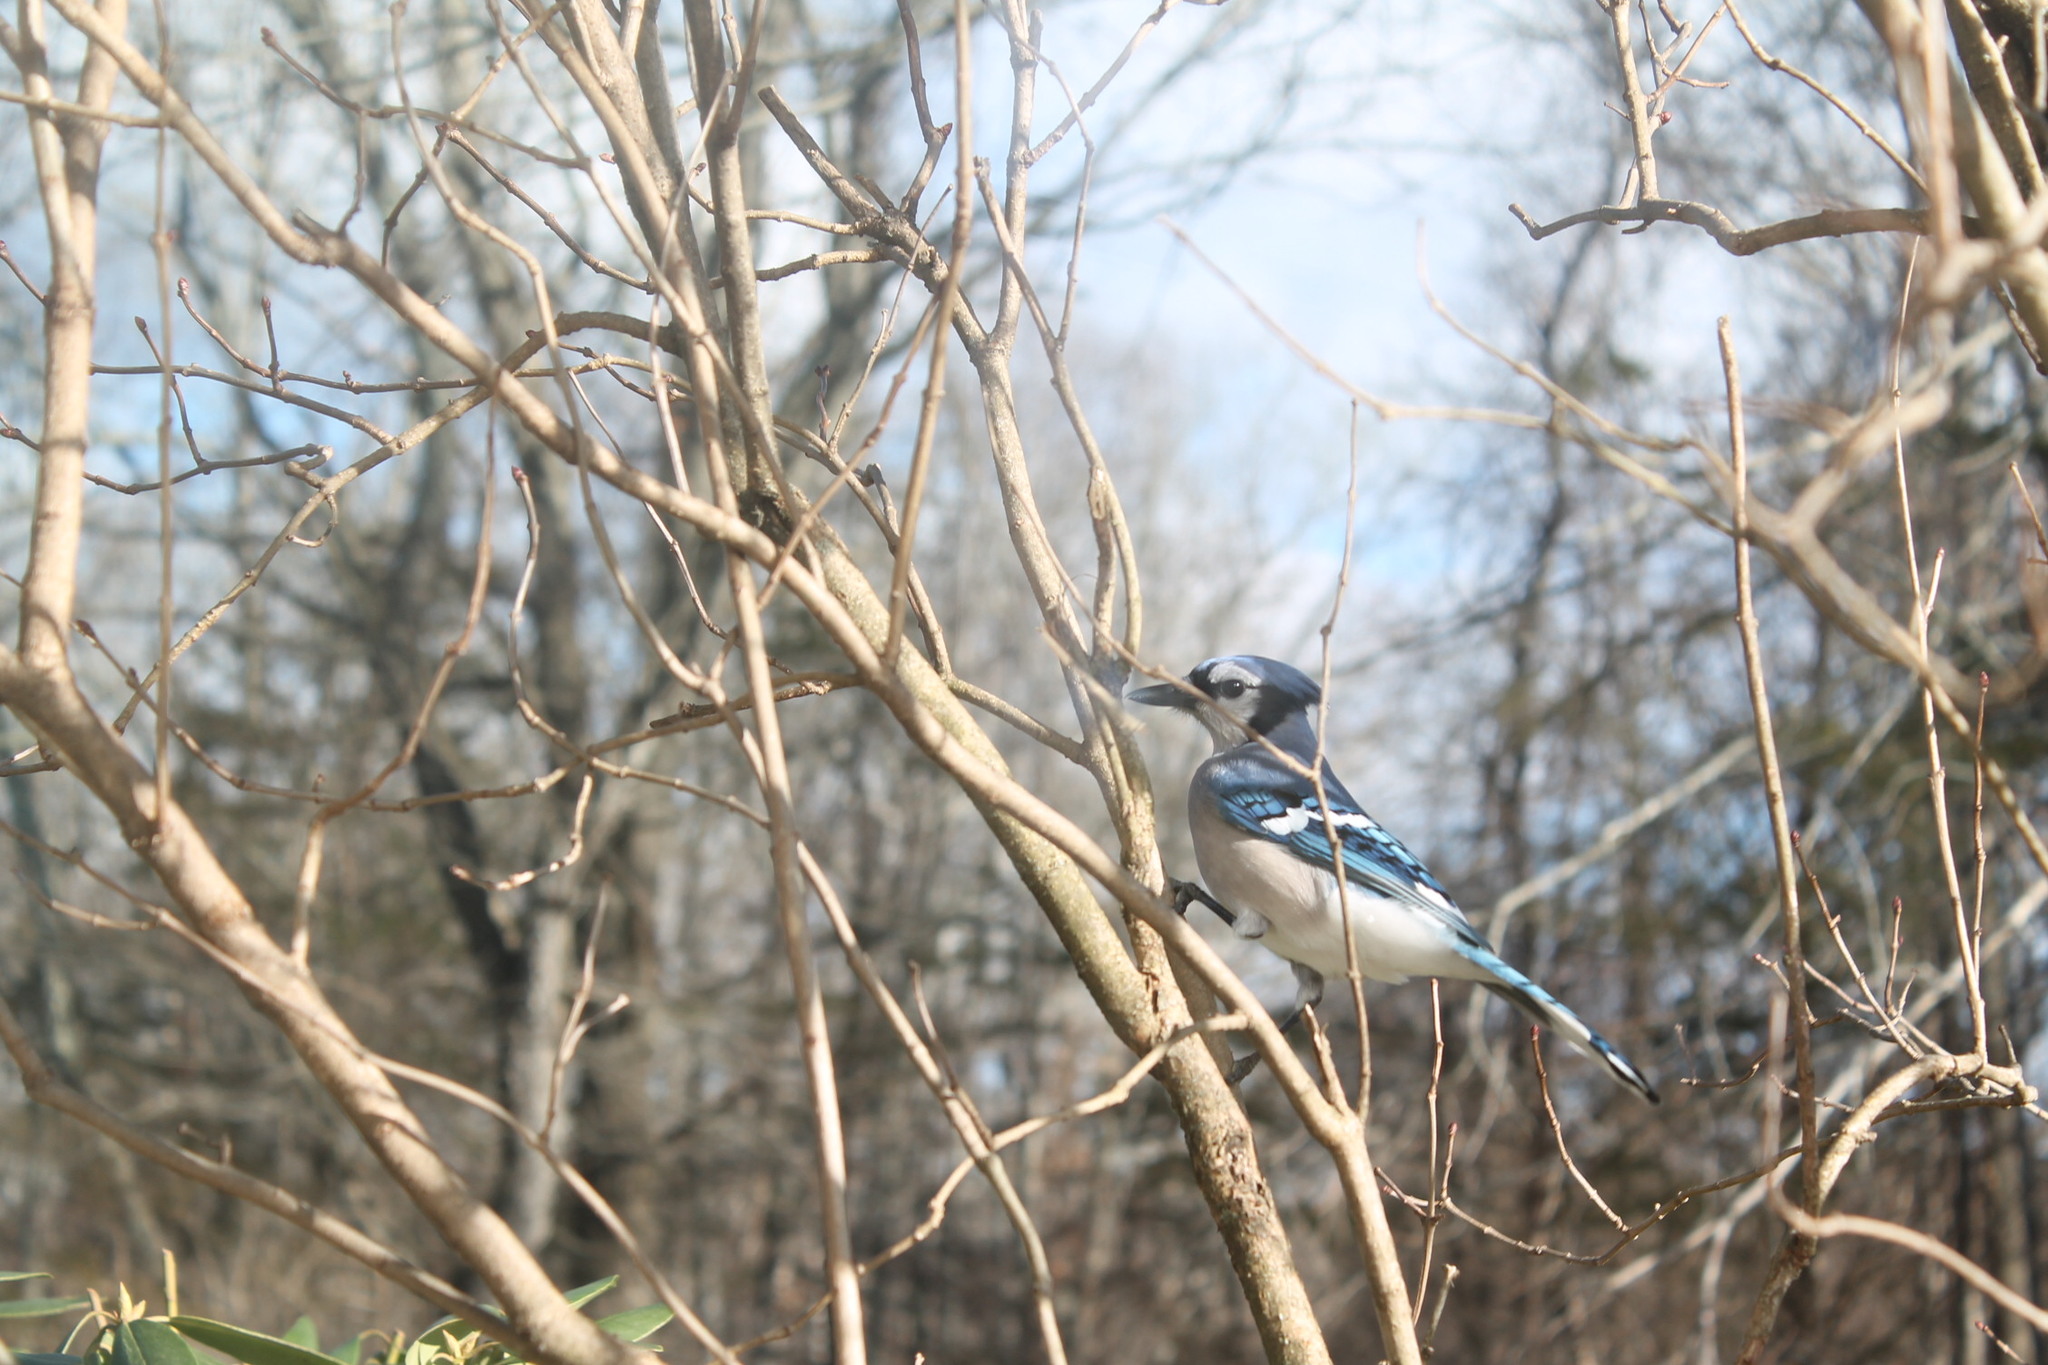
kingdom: Animalia
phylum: Chordata
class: Aves
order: Passeriformes
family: Corvidae
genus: Cyanocitta
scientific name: Cyanocitta cristata
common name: Blue jay
